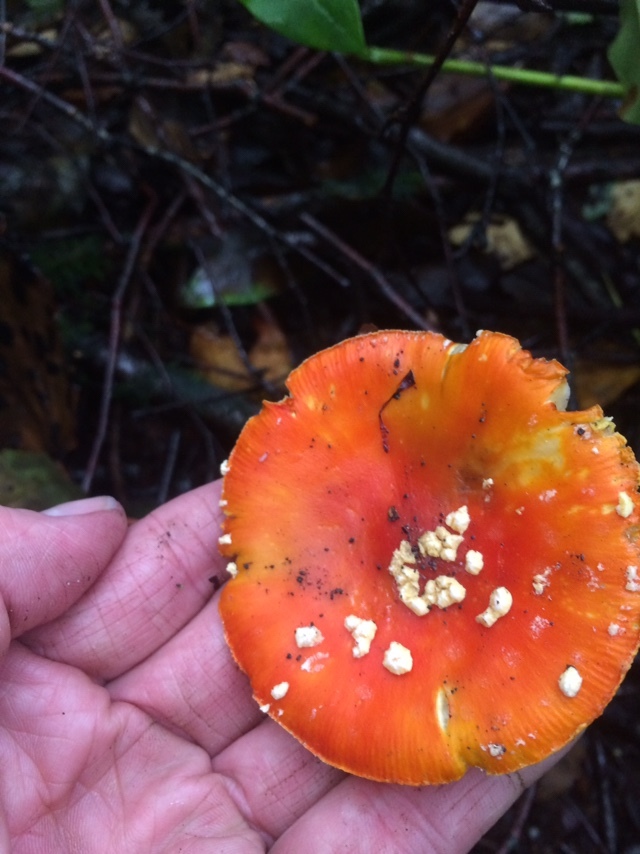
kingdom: Fungi
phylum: Basidiomycota
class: Agaricomycetes
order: Agaricales
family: Amanitaceae
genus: Amanita
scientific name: Amanita muscaria
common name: Fly agaric
